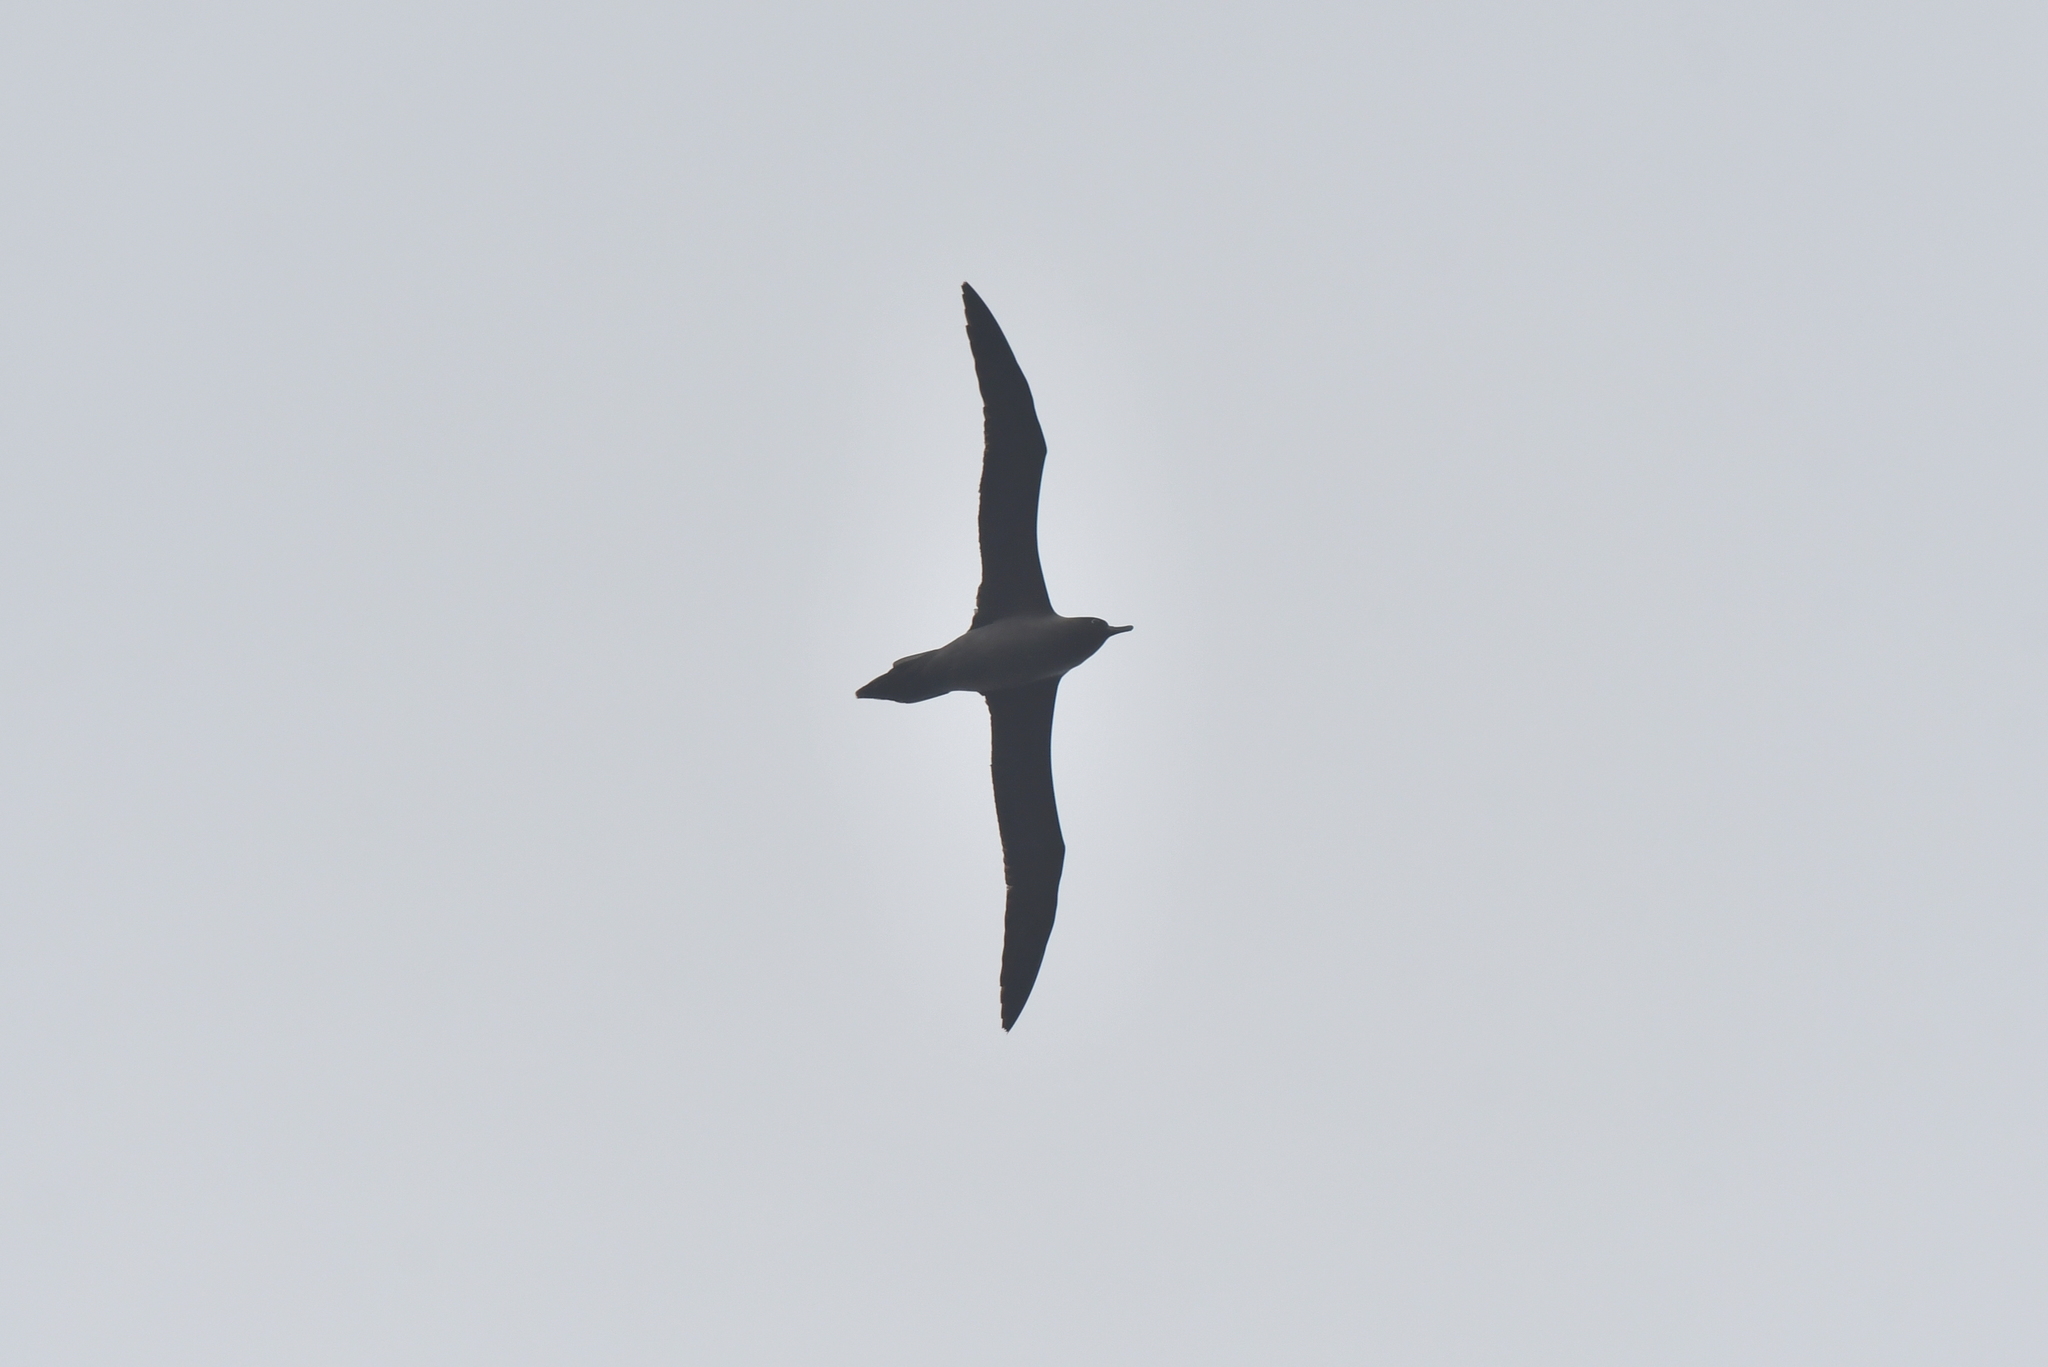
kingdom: Animalia
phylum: Chordata
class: Aves
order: Procellariiformes
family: Diomedeidae
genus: Phoebetria
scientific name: Phoebetria palpebrata
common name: Light-mantled albatross
